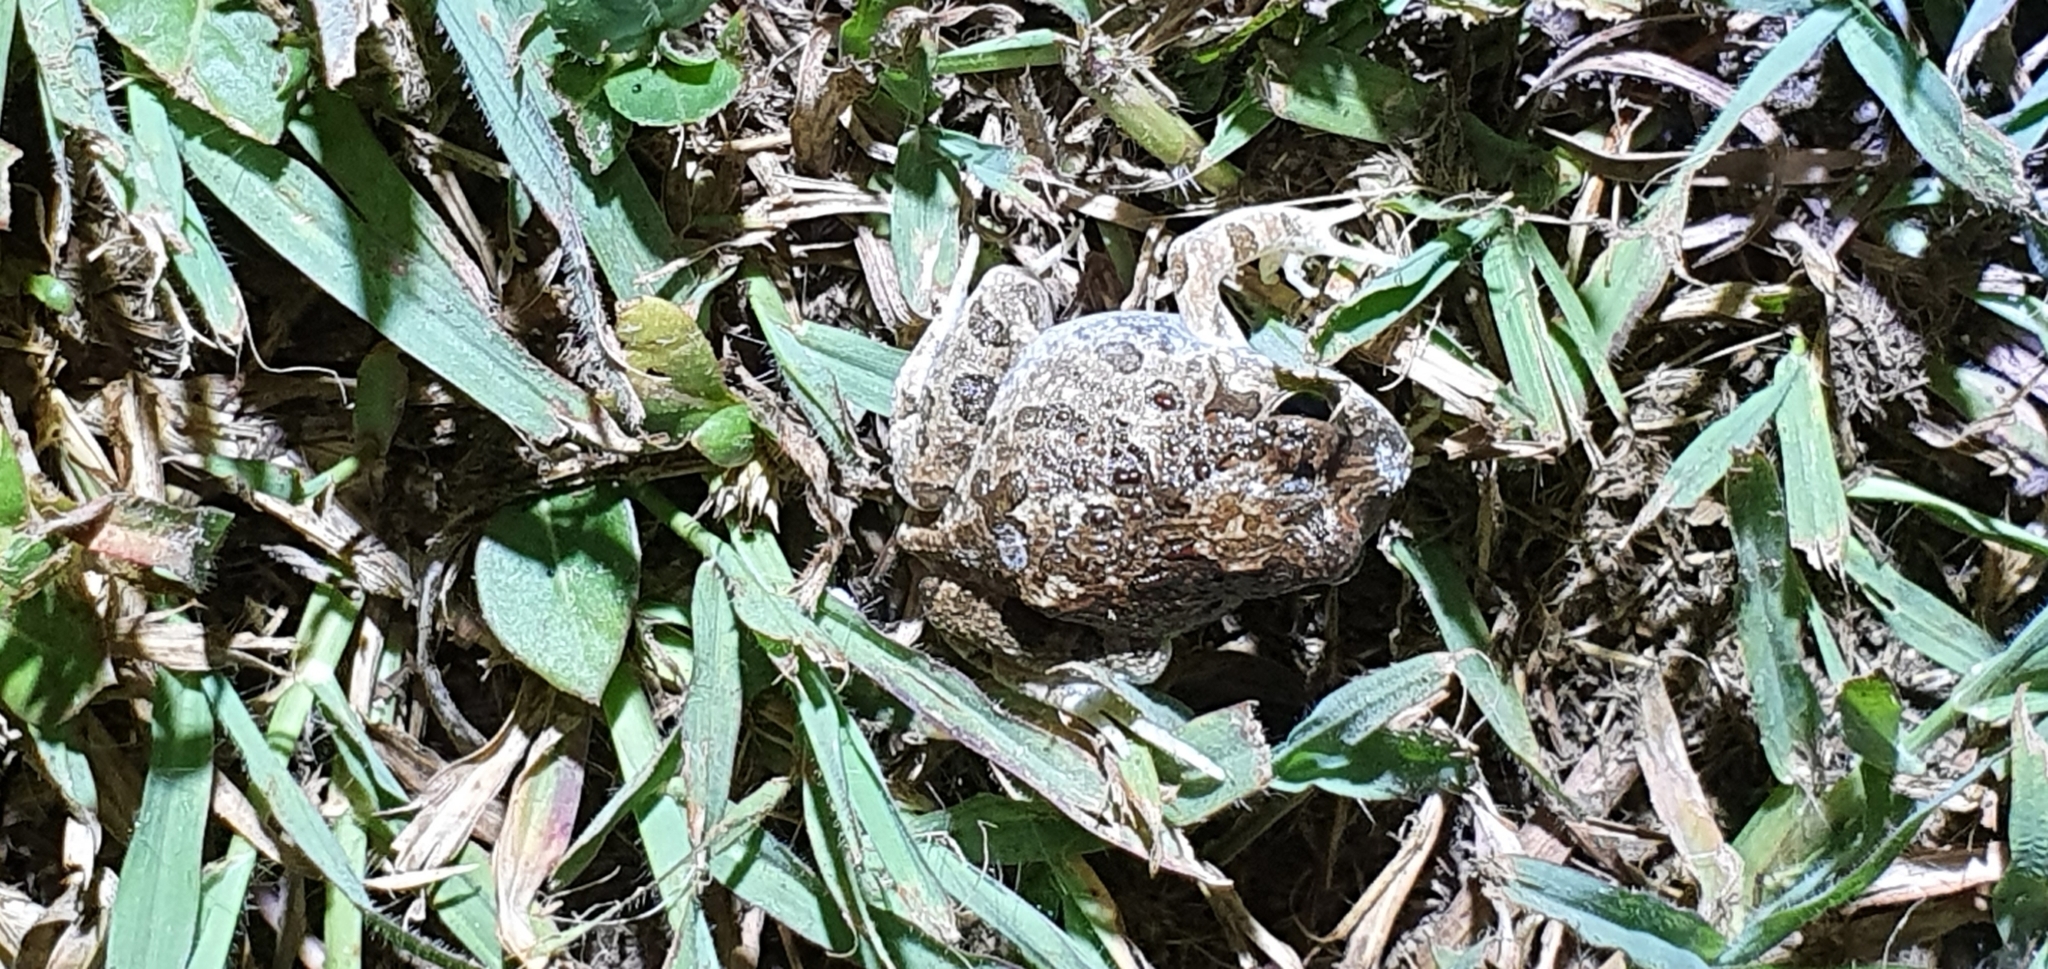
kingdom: Animalia
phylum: Chordata
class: Amphibia
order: Anura
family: Limnodynastidae
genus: Platyplectrum
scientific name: Platyplectrum ornatum
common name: Ornate burrowing frog
